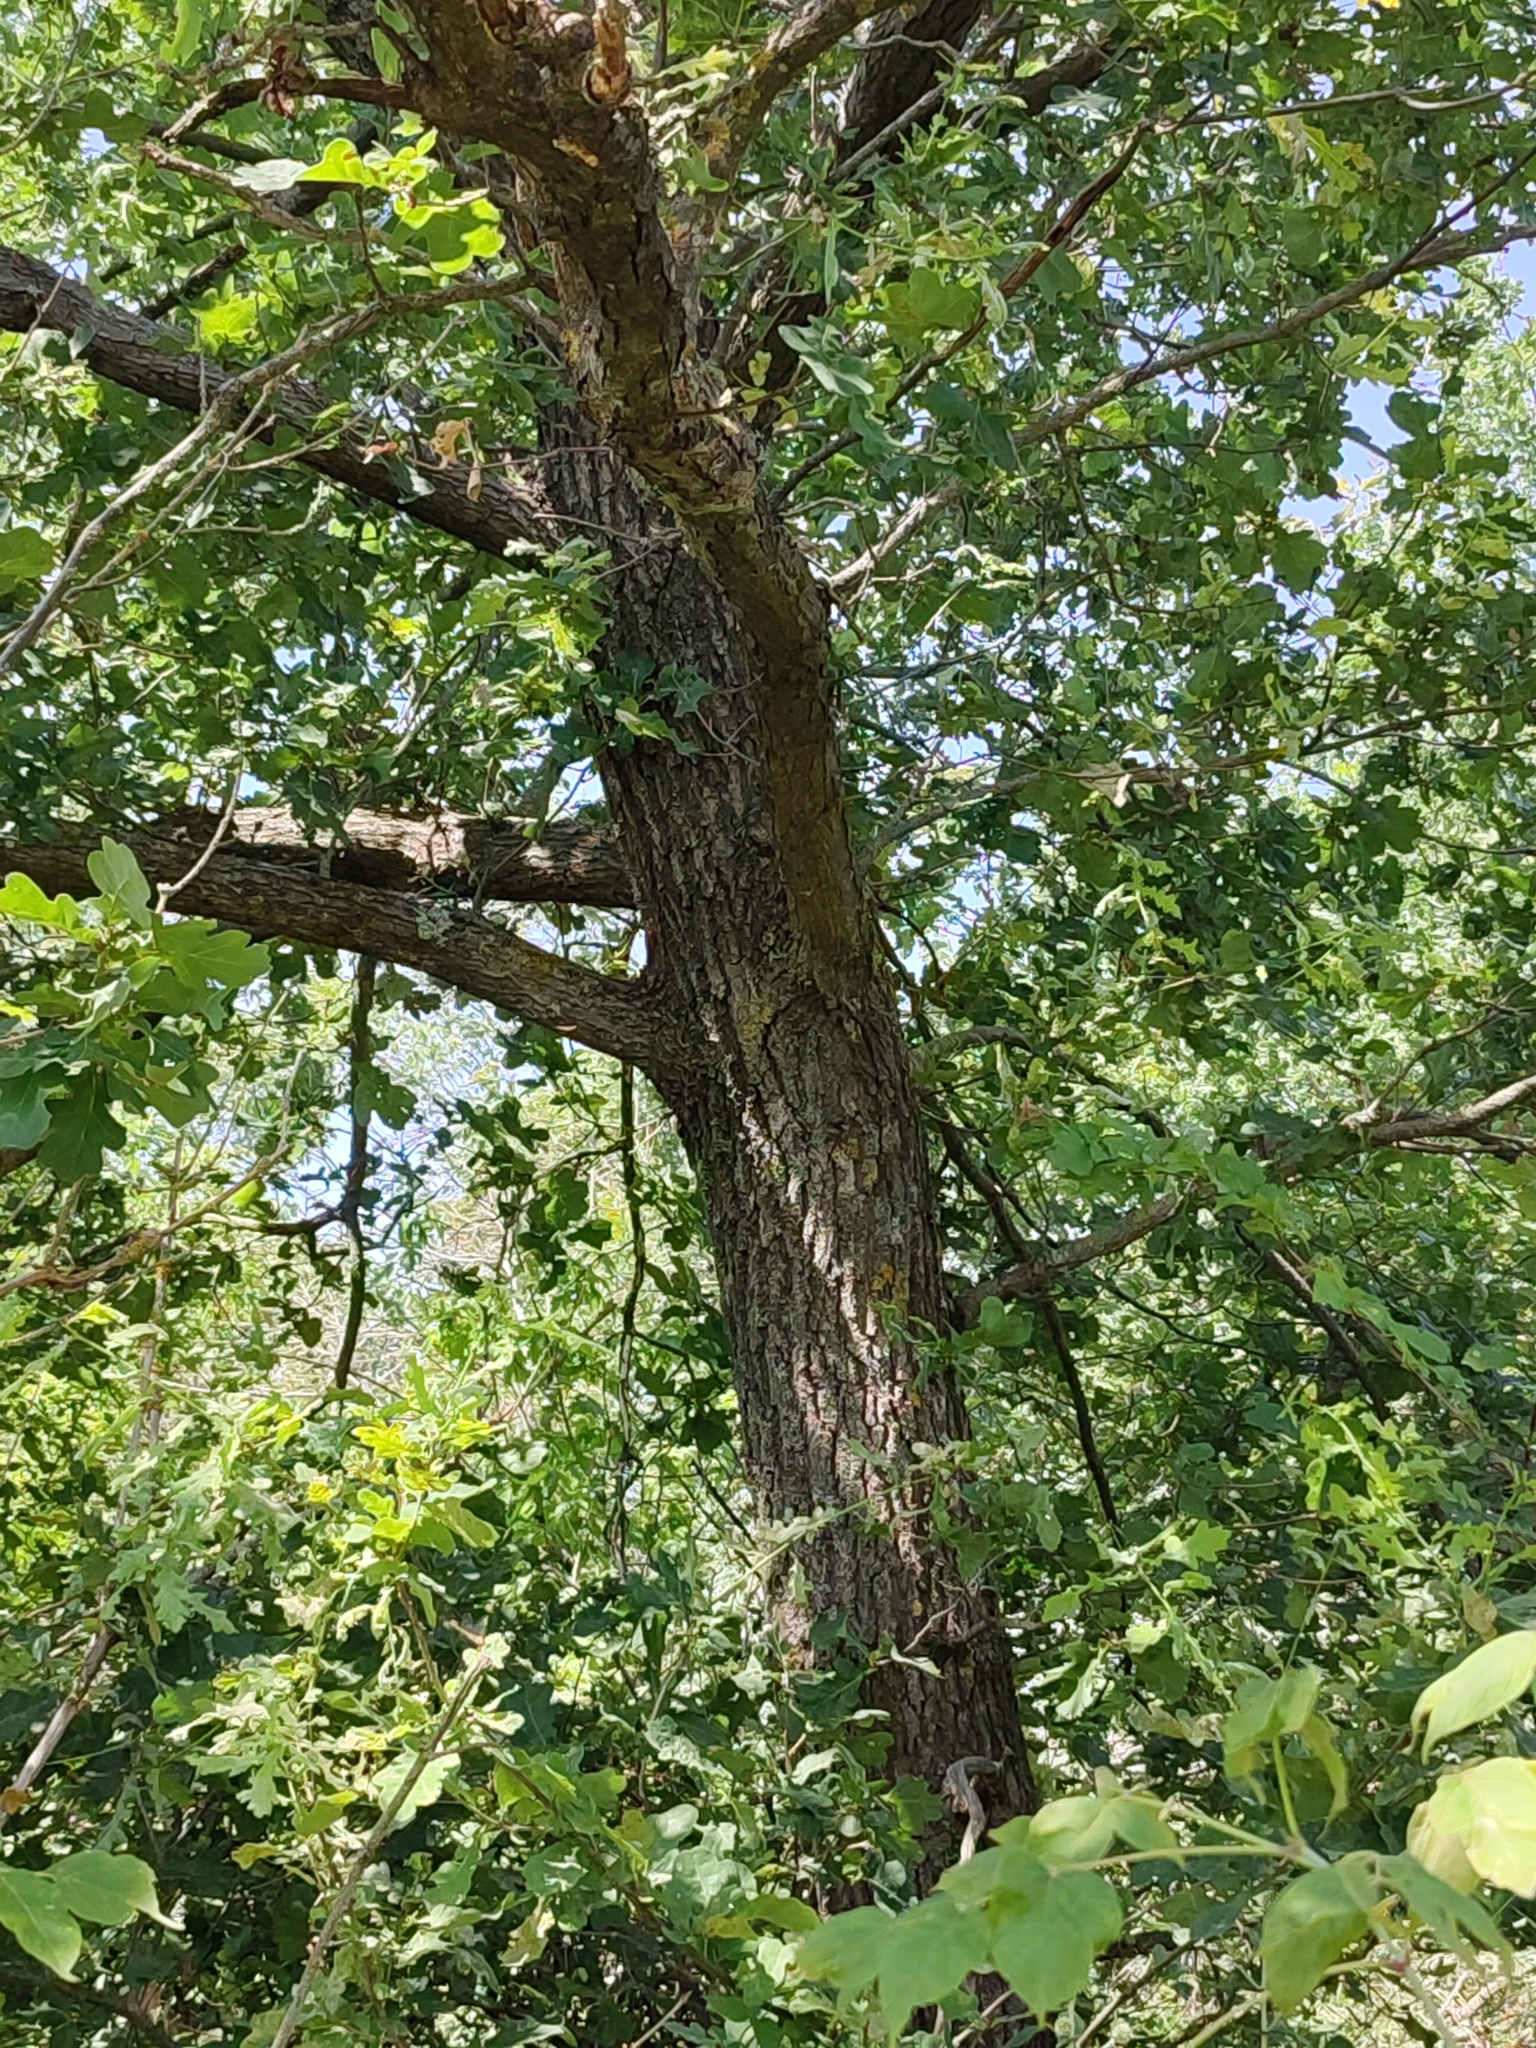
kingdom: Plantae
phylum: Tracheophyta
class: Magnoliopsida
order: Fagales
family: Fagaceae
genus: Quercus
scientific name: Quercus robur
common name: Pedunculate oak
